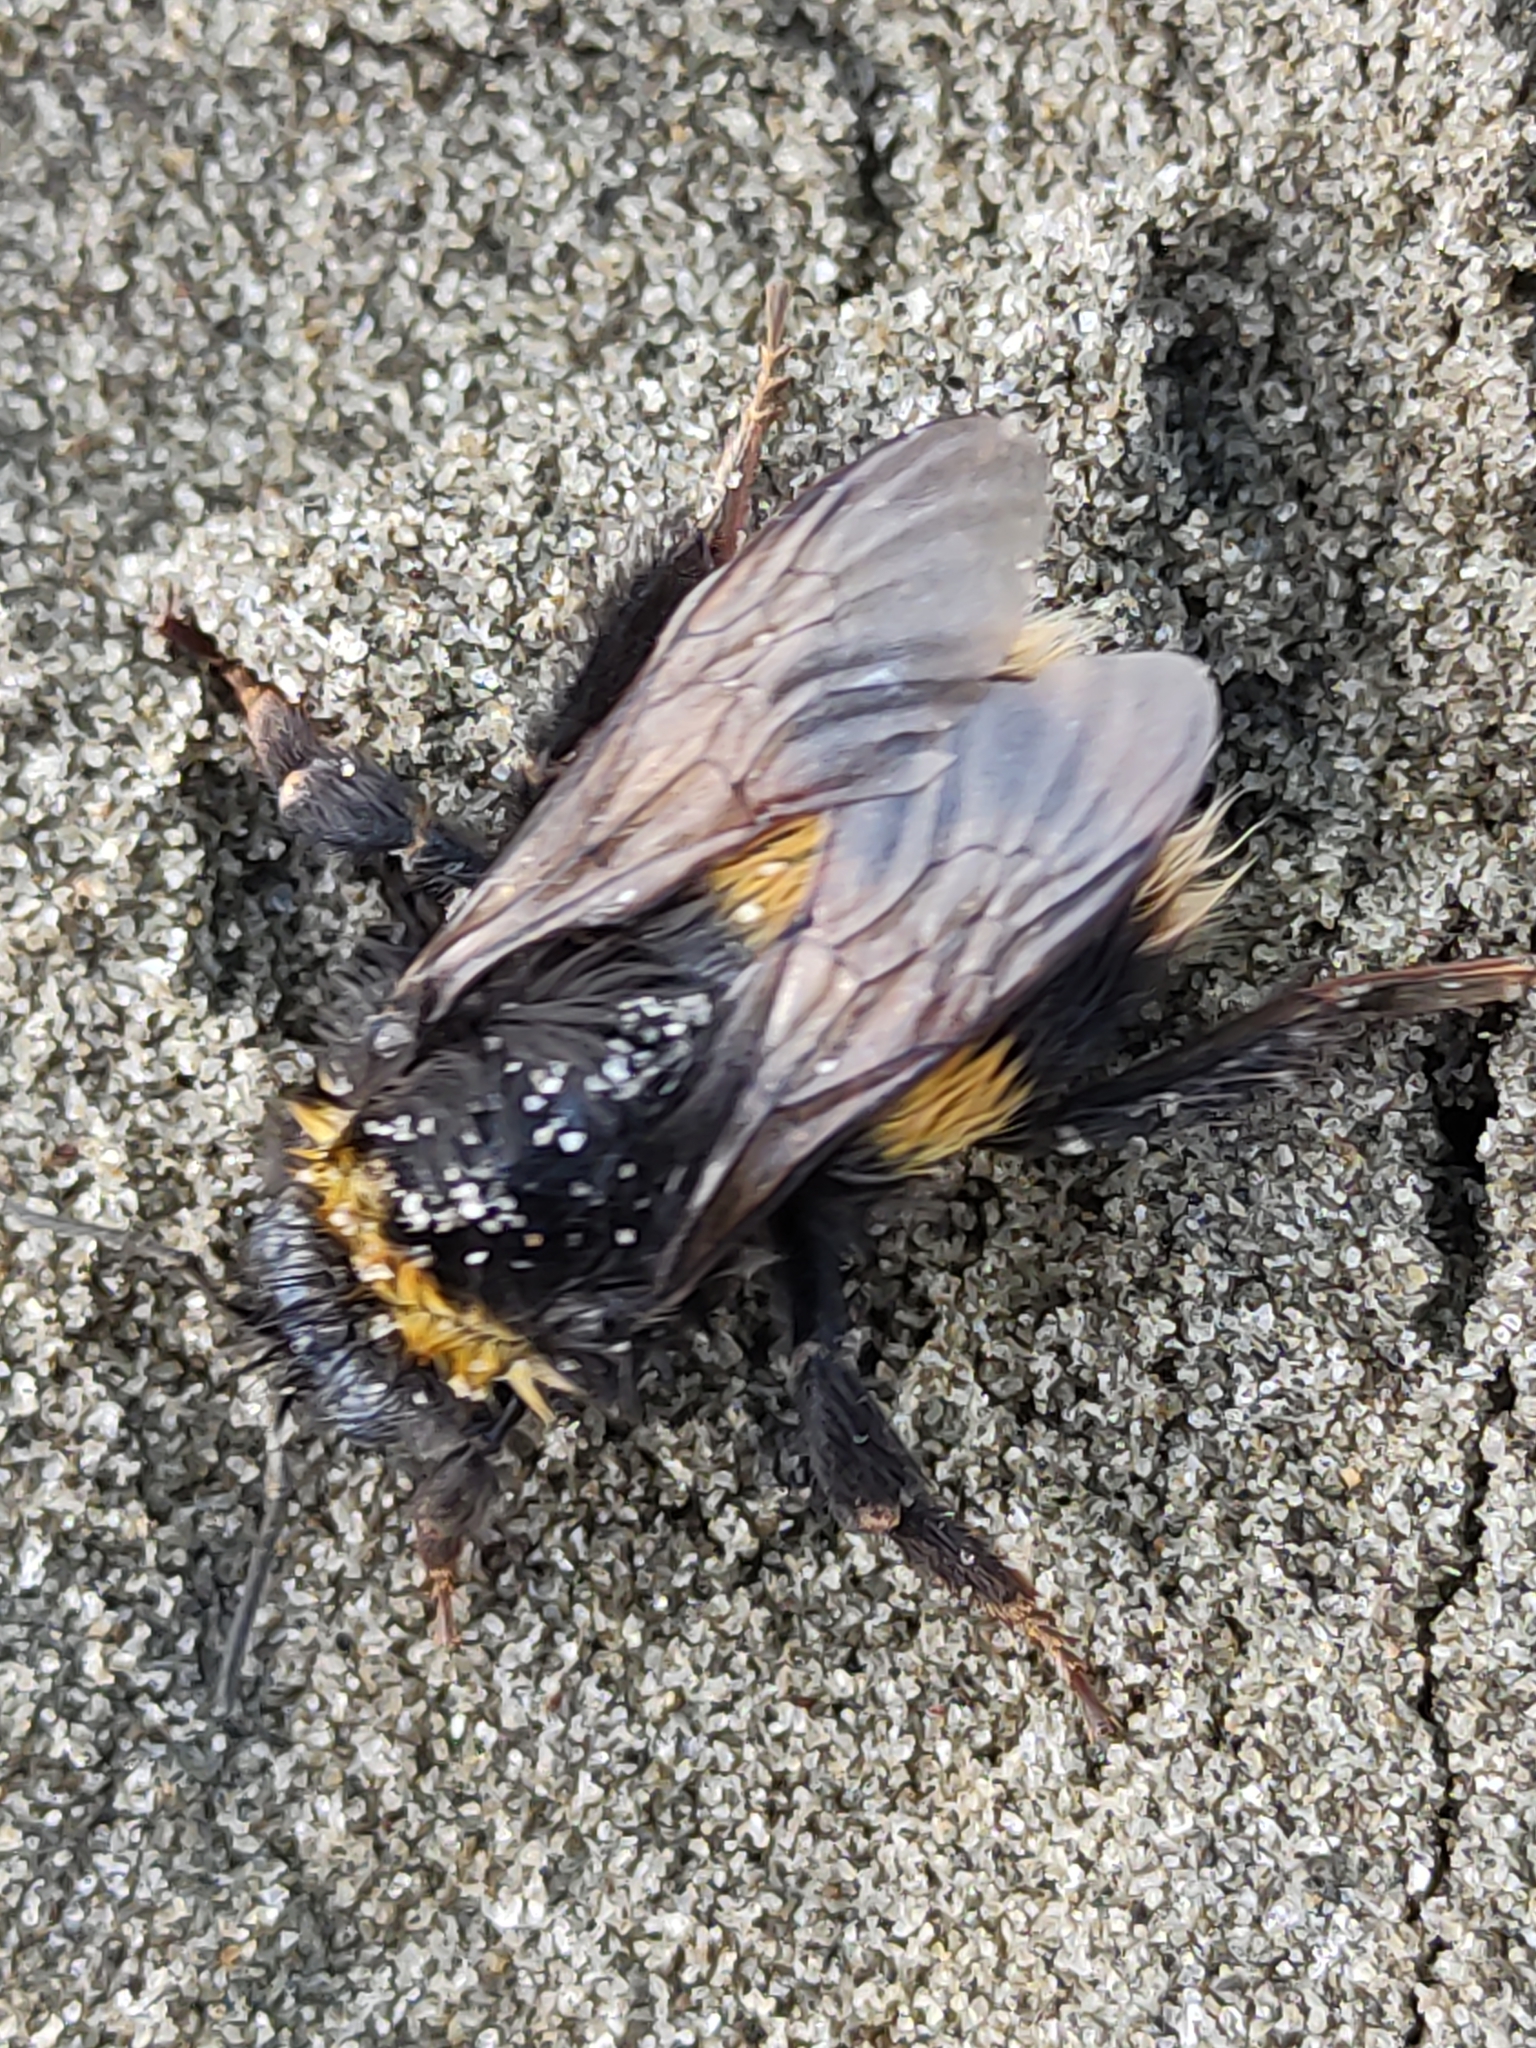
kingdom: Animalia
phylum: Arthropoda
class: Insecta
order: Hymenoptera
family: Apidae
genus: Bombus
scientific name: Bombus terrestris
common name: Buff-tailed bumblebee
